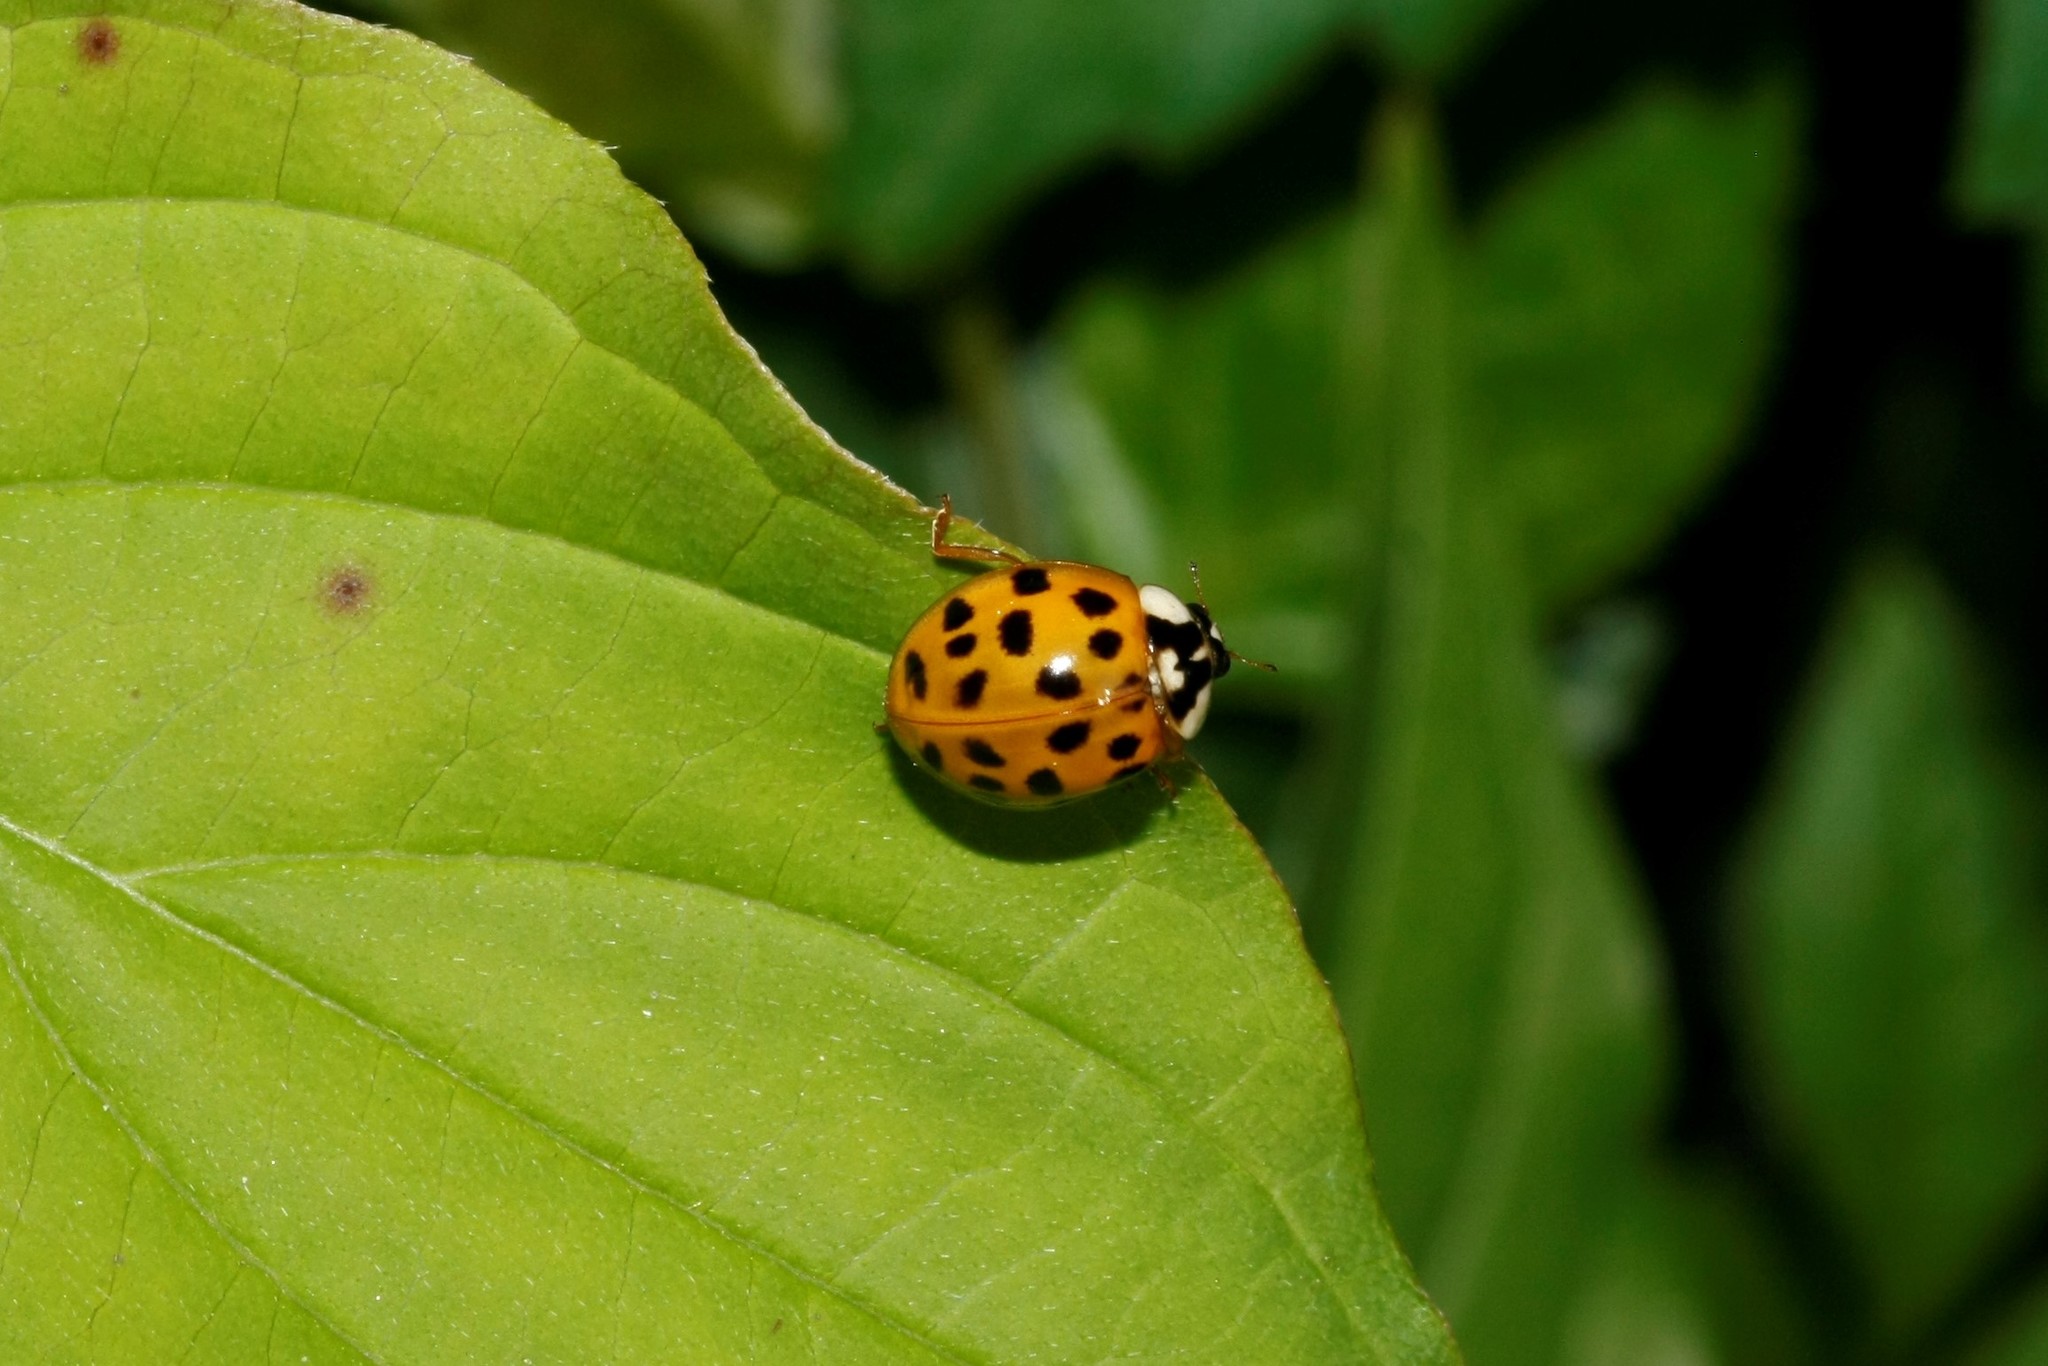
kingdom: Animalia
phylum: Arthropoda
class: Insecta
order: Coleoptera
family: Coccinellidae
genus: Harmonia
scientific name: Harmonia axyridis
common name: Harlequin ladybird
